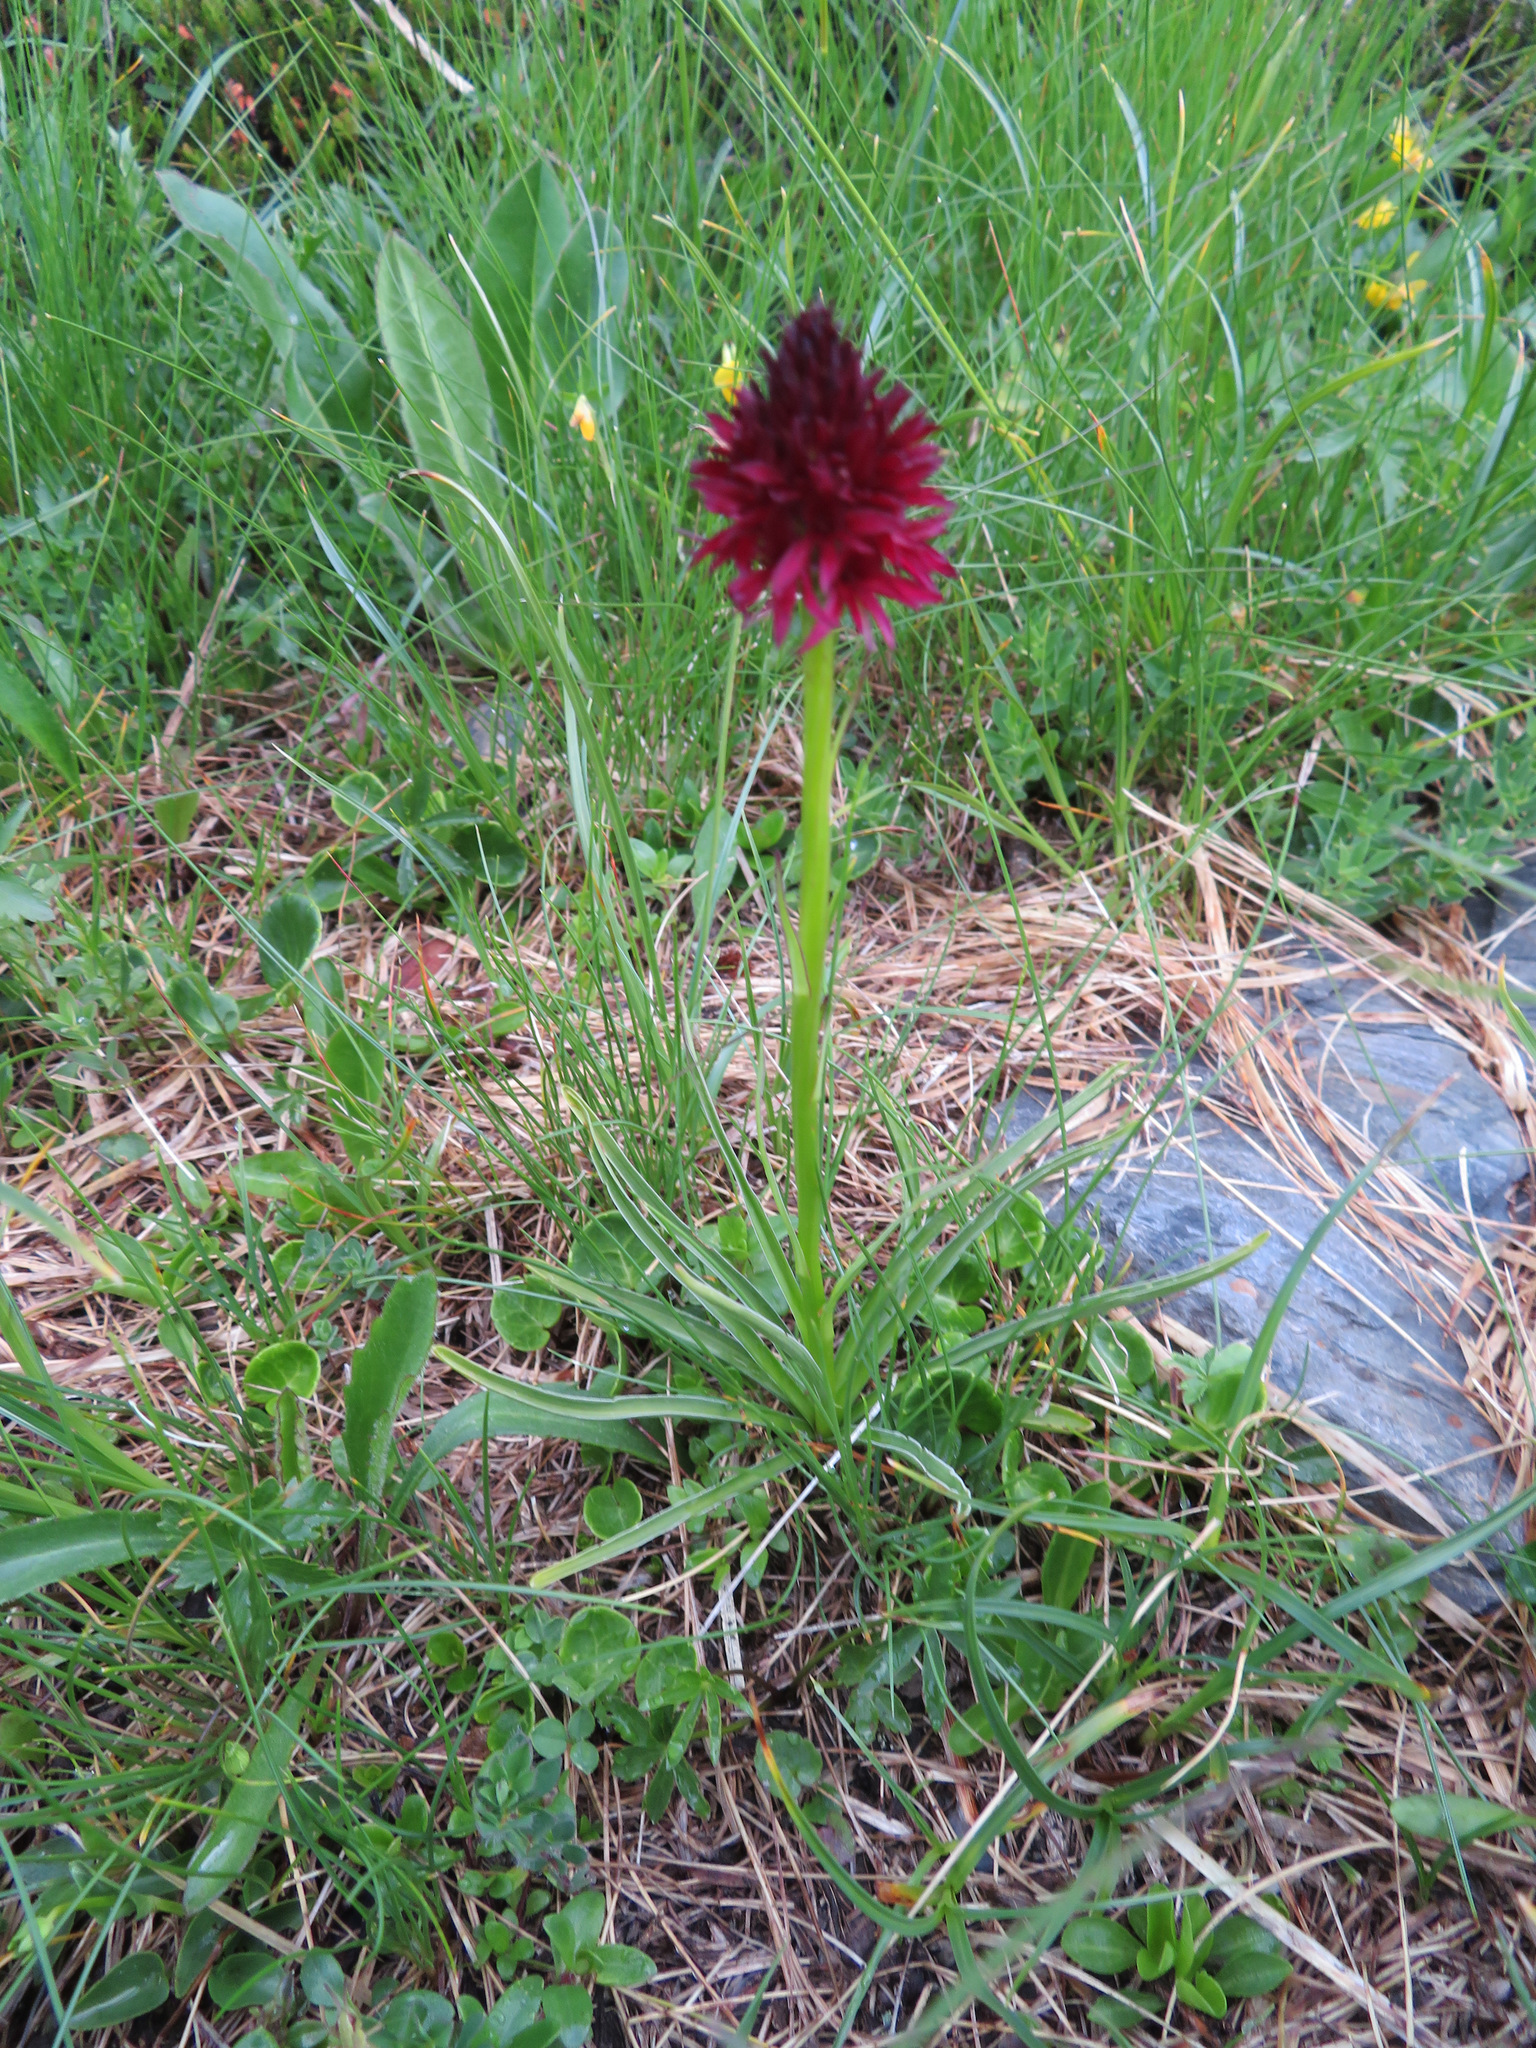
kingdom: Plantae
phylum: Tracheophyta
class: Liliopsida
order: Asparagales
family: Orchidaceae
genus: Gymnadenia
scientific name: Gymnadenia rhellicani
